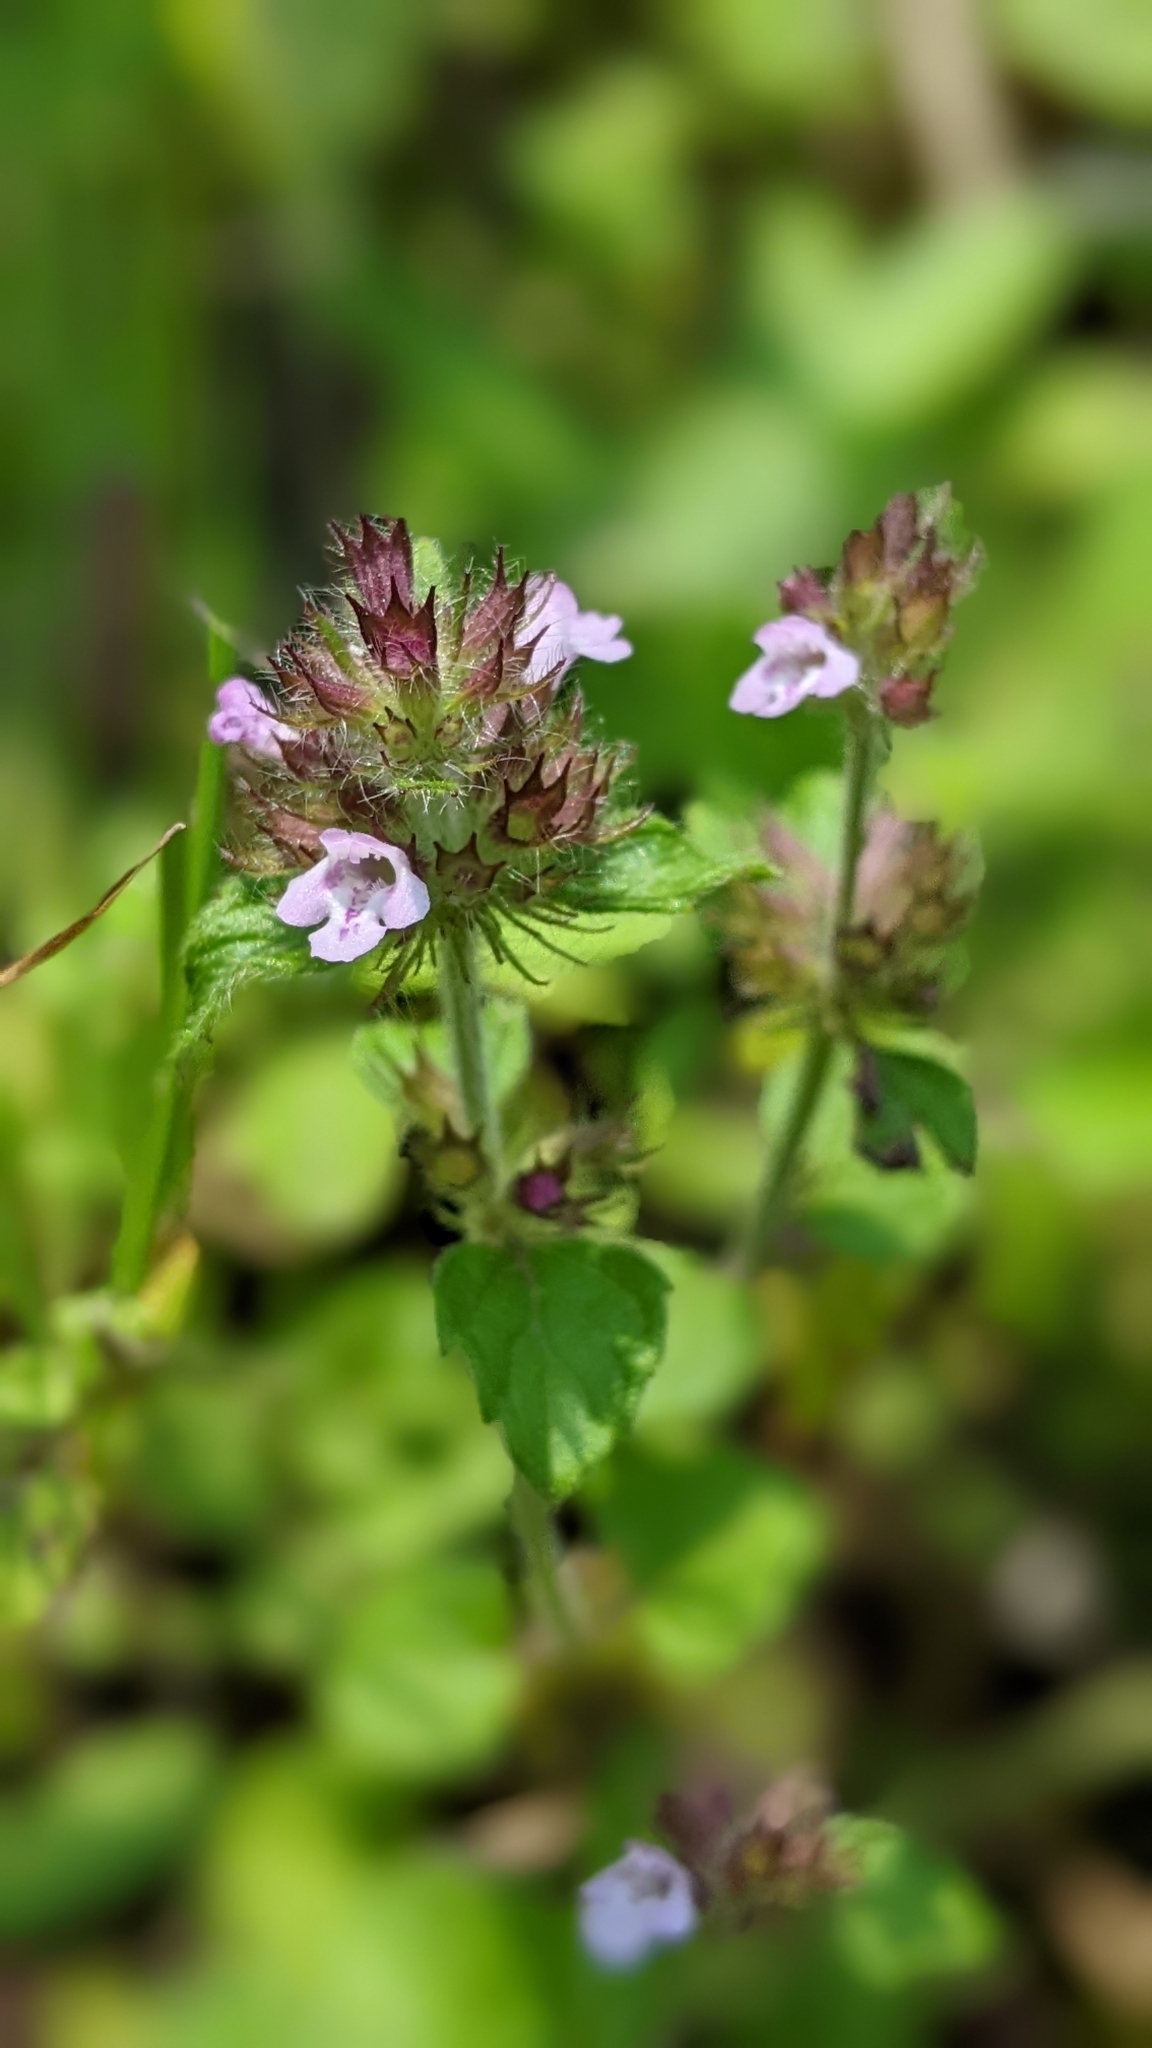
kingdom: Plantae
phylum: Tracheophyta
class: Magnoliopsida
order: Lamiales
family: Lamiaceae
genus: Clinopodium
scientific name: Clinopodium chinense
